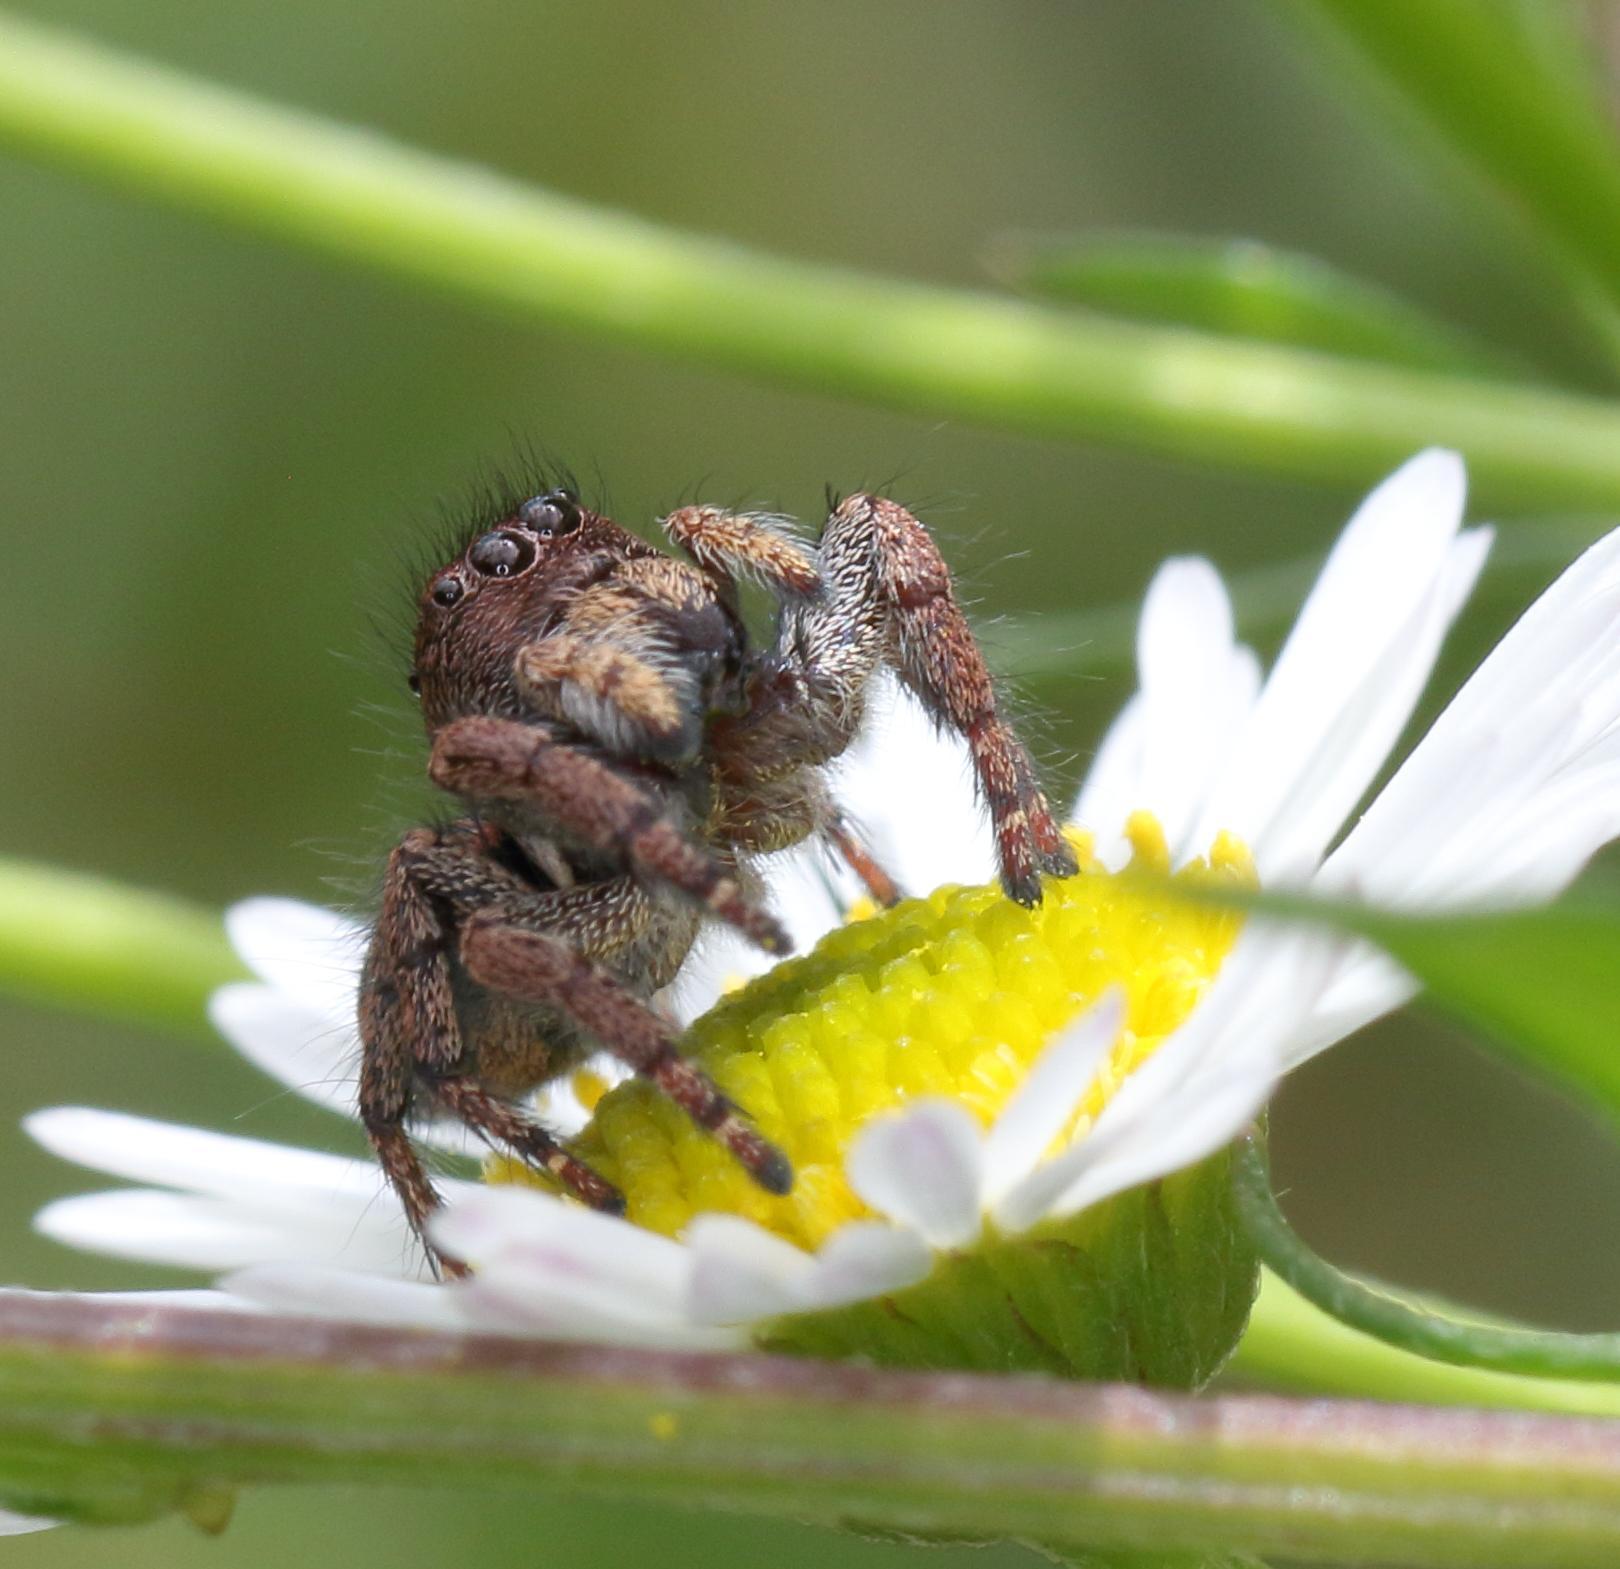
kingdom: Animalia
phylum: Arthropoda
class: Arachnida
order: Araneae
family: Salticidae
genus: Baryphas
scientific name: Baryphas ahenus
